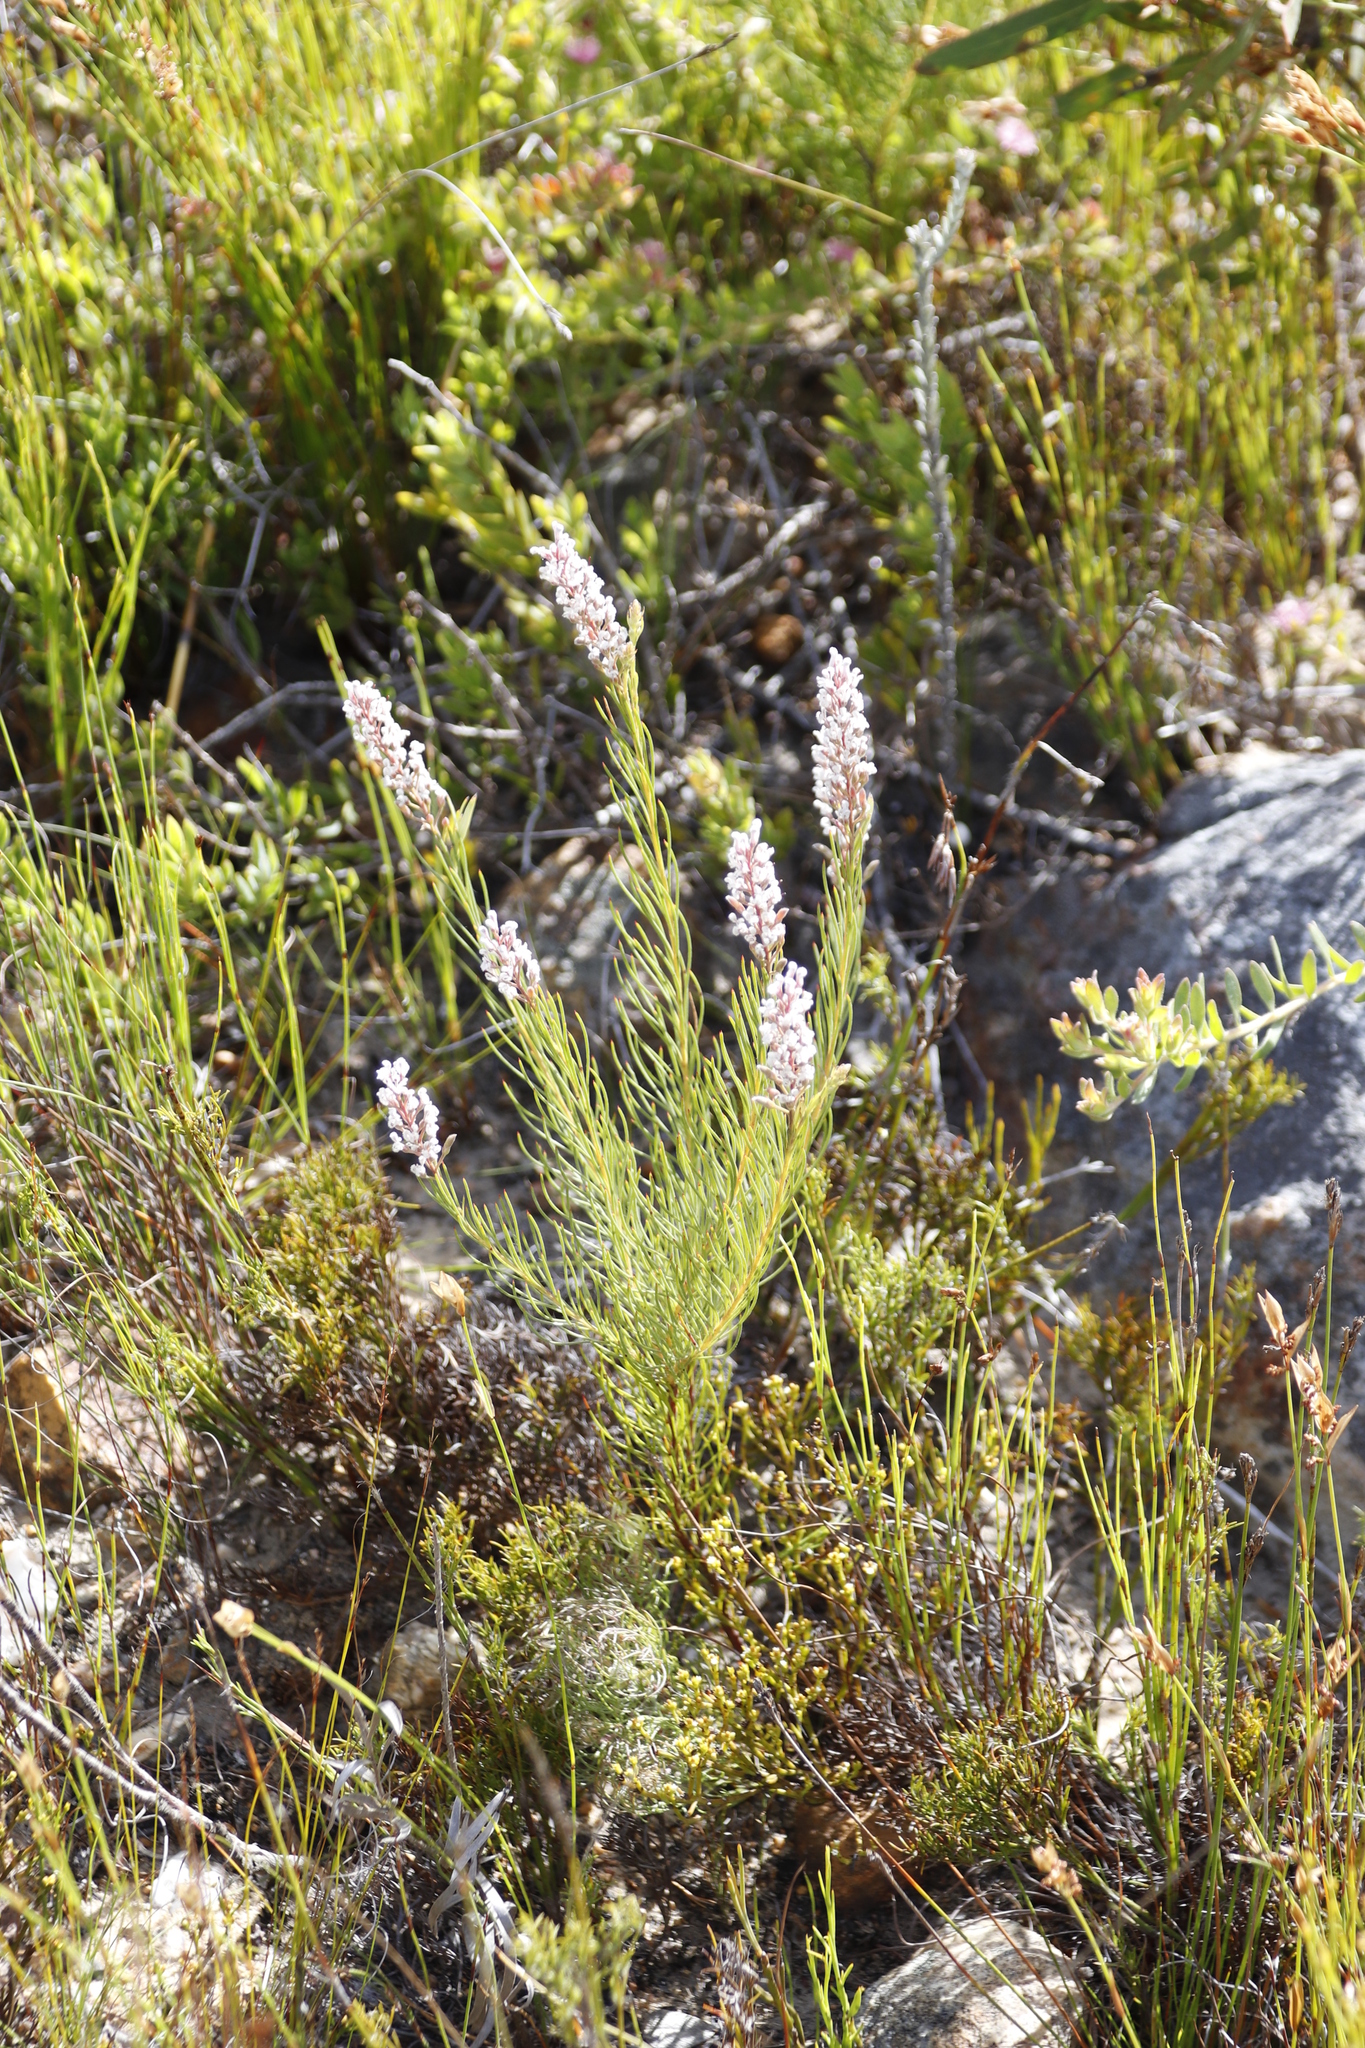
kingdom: Plantae
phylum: Tracheophyta
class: Magnoliopsida
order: Proteales
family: Proteaceae
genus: Spatalla
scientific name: Spatalla racemosa
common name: Lax-stalked spoon
